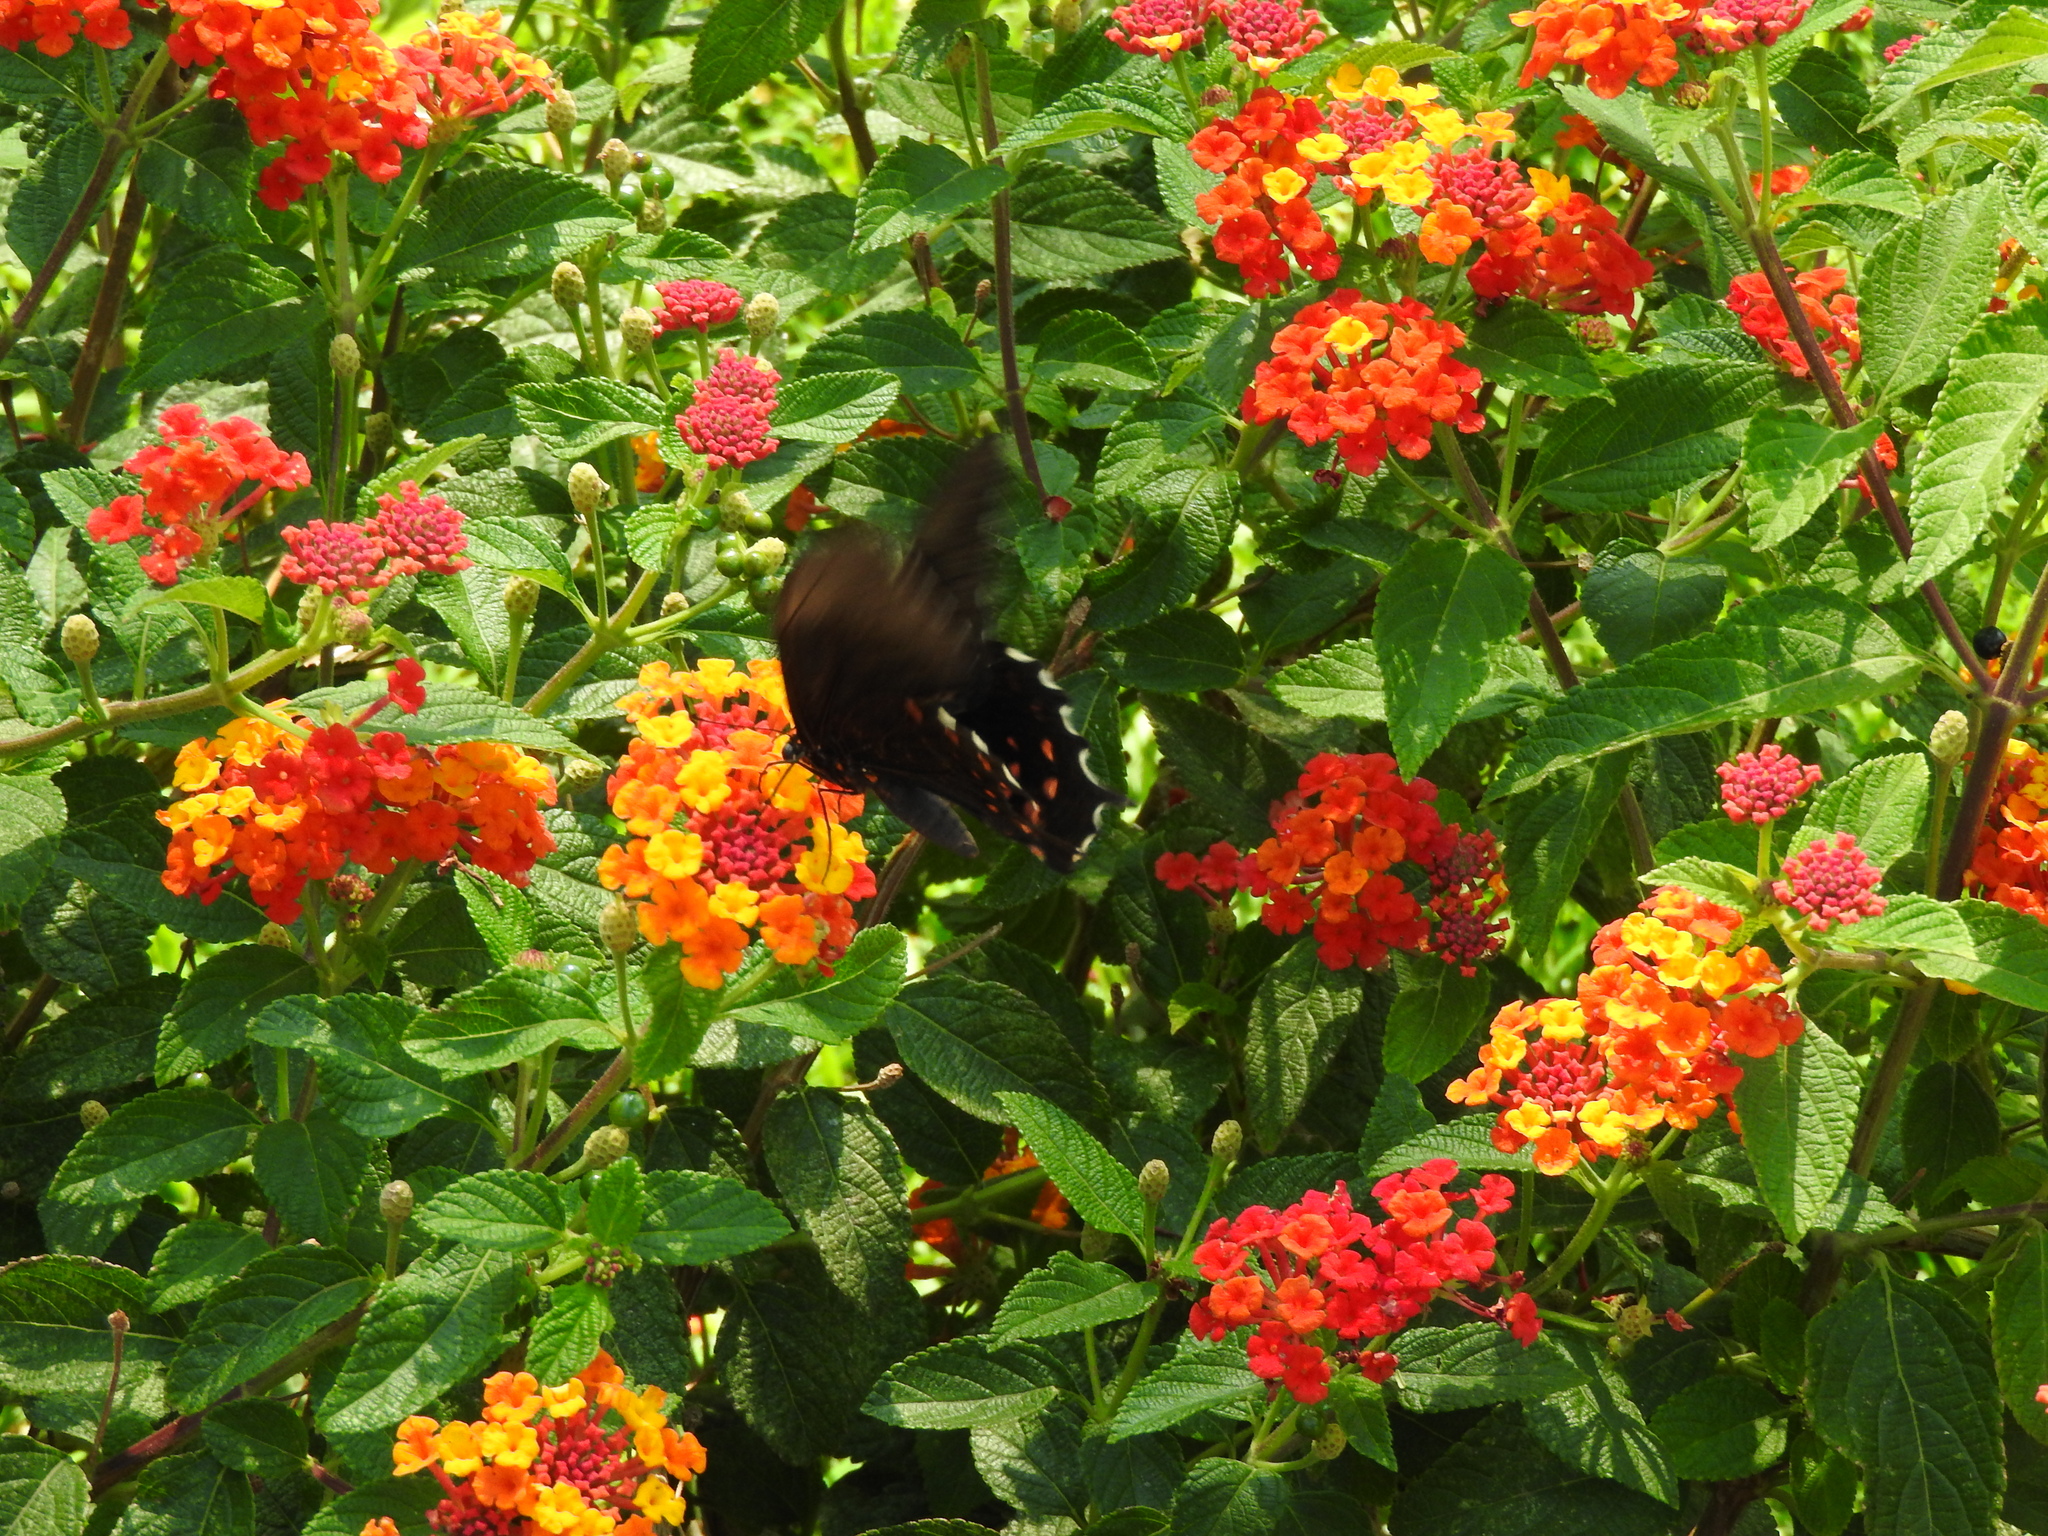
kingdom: Animalia
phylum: Arthropoda
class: Insecta
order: Lepidoptera
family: Papilionidae
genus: Heraclides
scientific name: Heraclides rogeri
